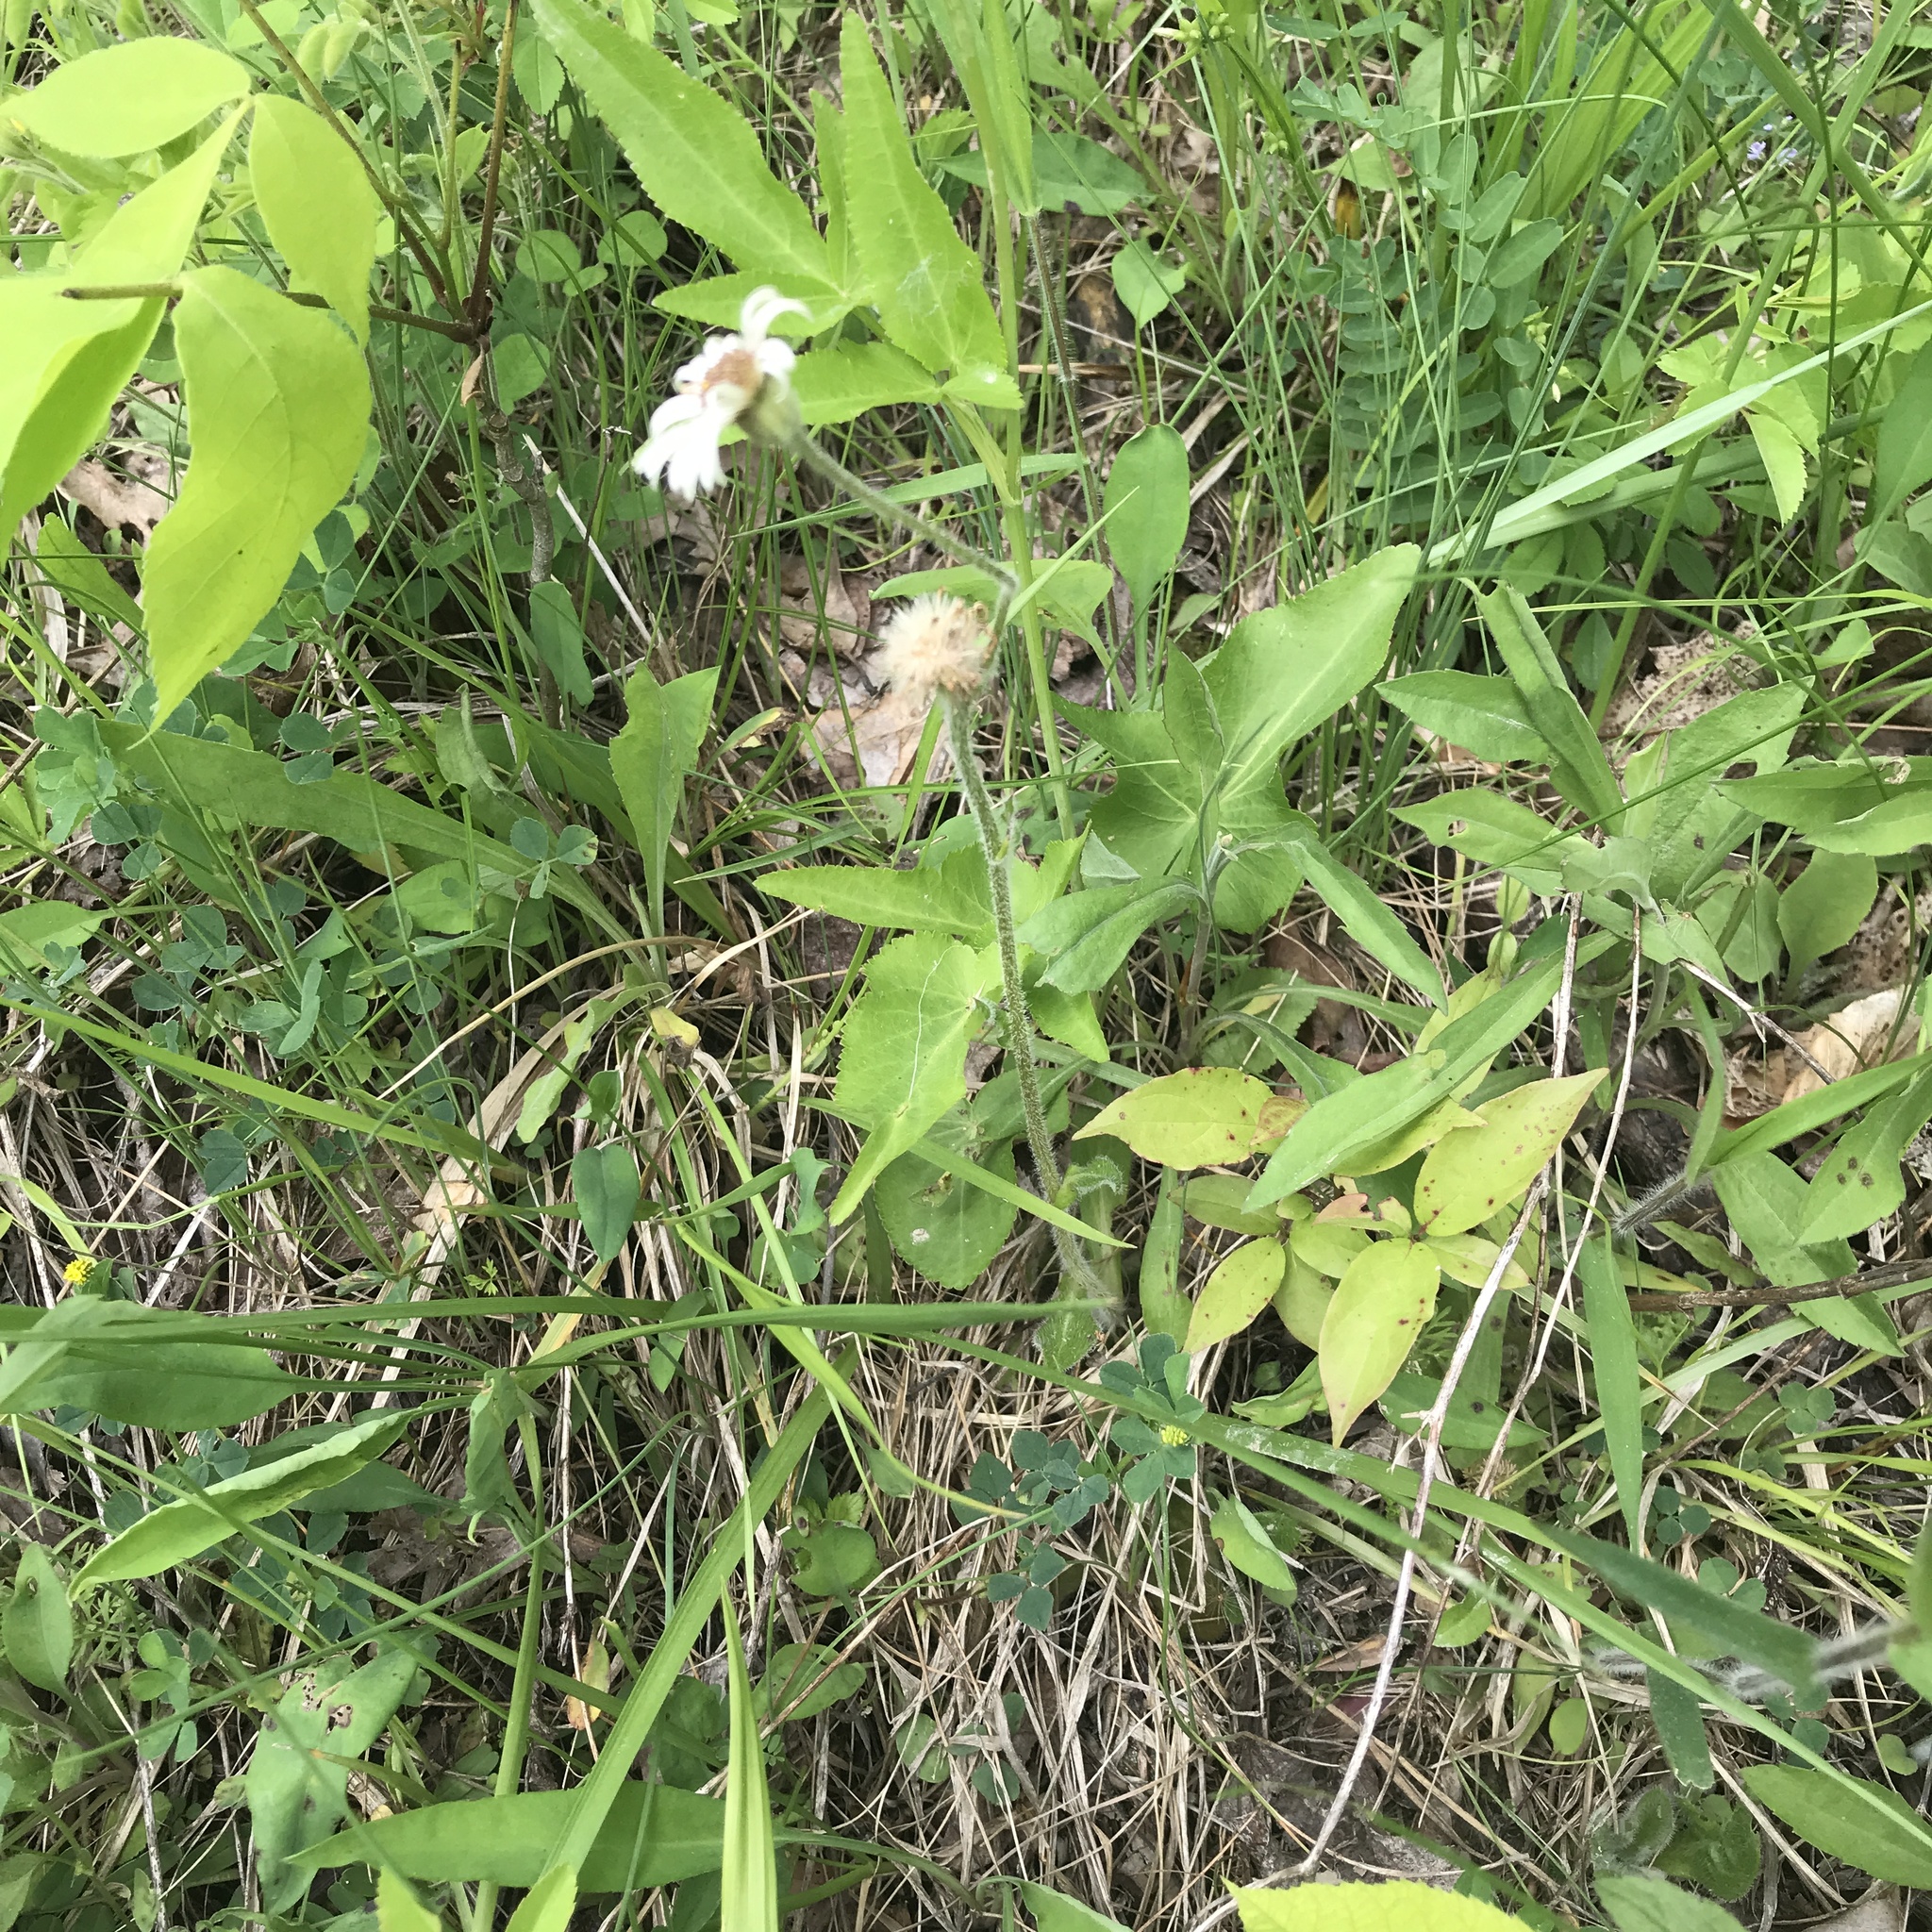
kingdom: Plantae
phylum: Tracheophyta
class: Magnoliopsida
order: Asterales
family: Asteraceae
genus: Erigeron
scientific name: Erigeron pulchellus
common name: Hairy fleabane
